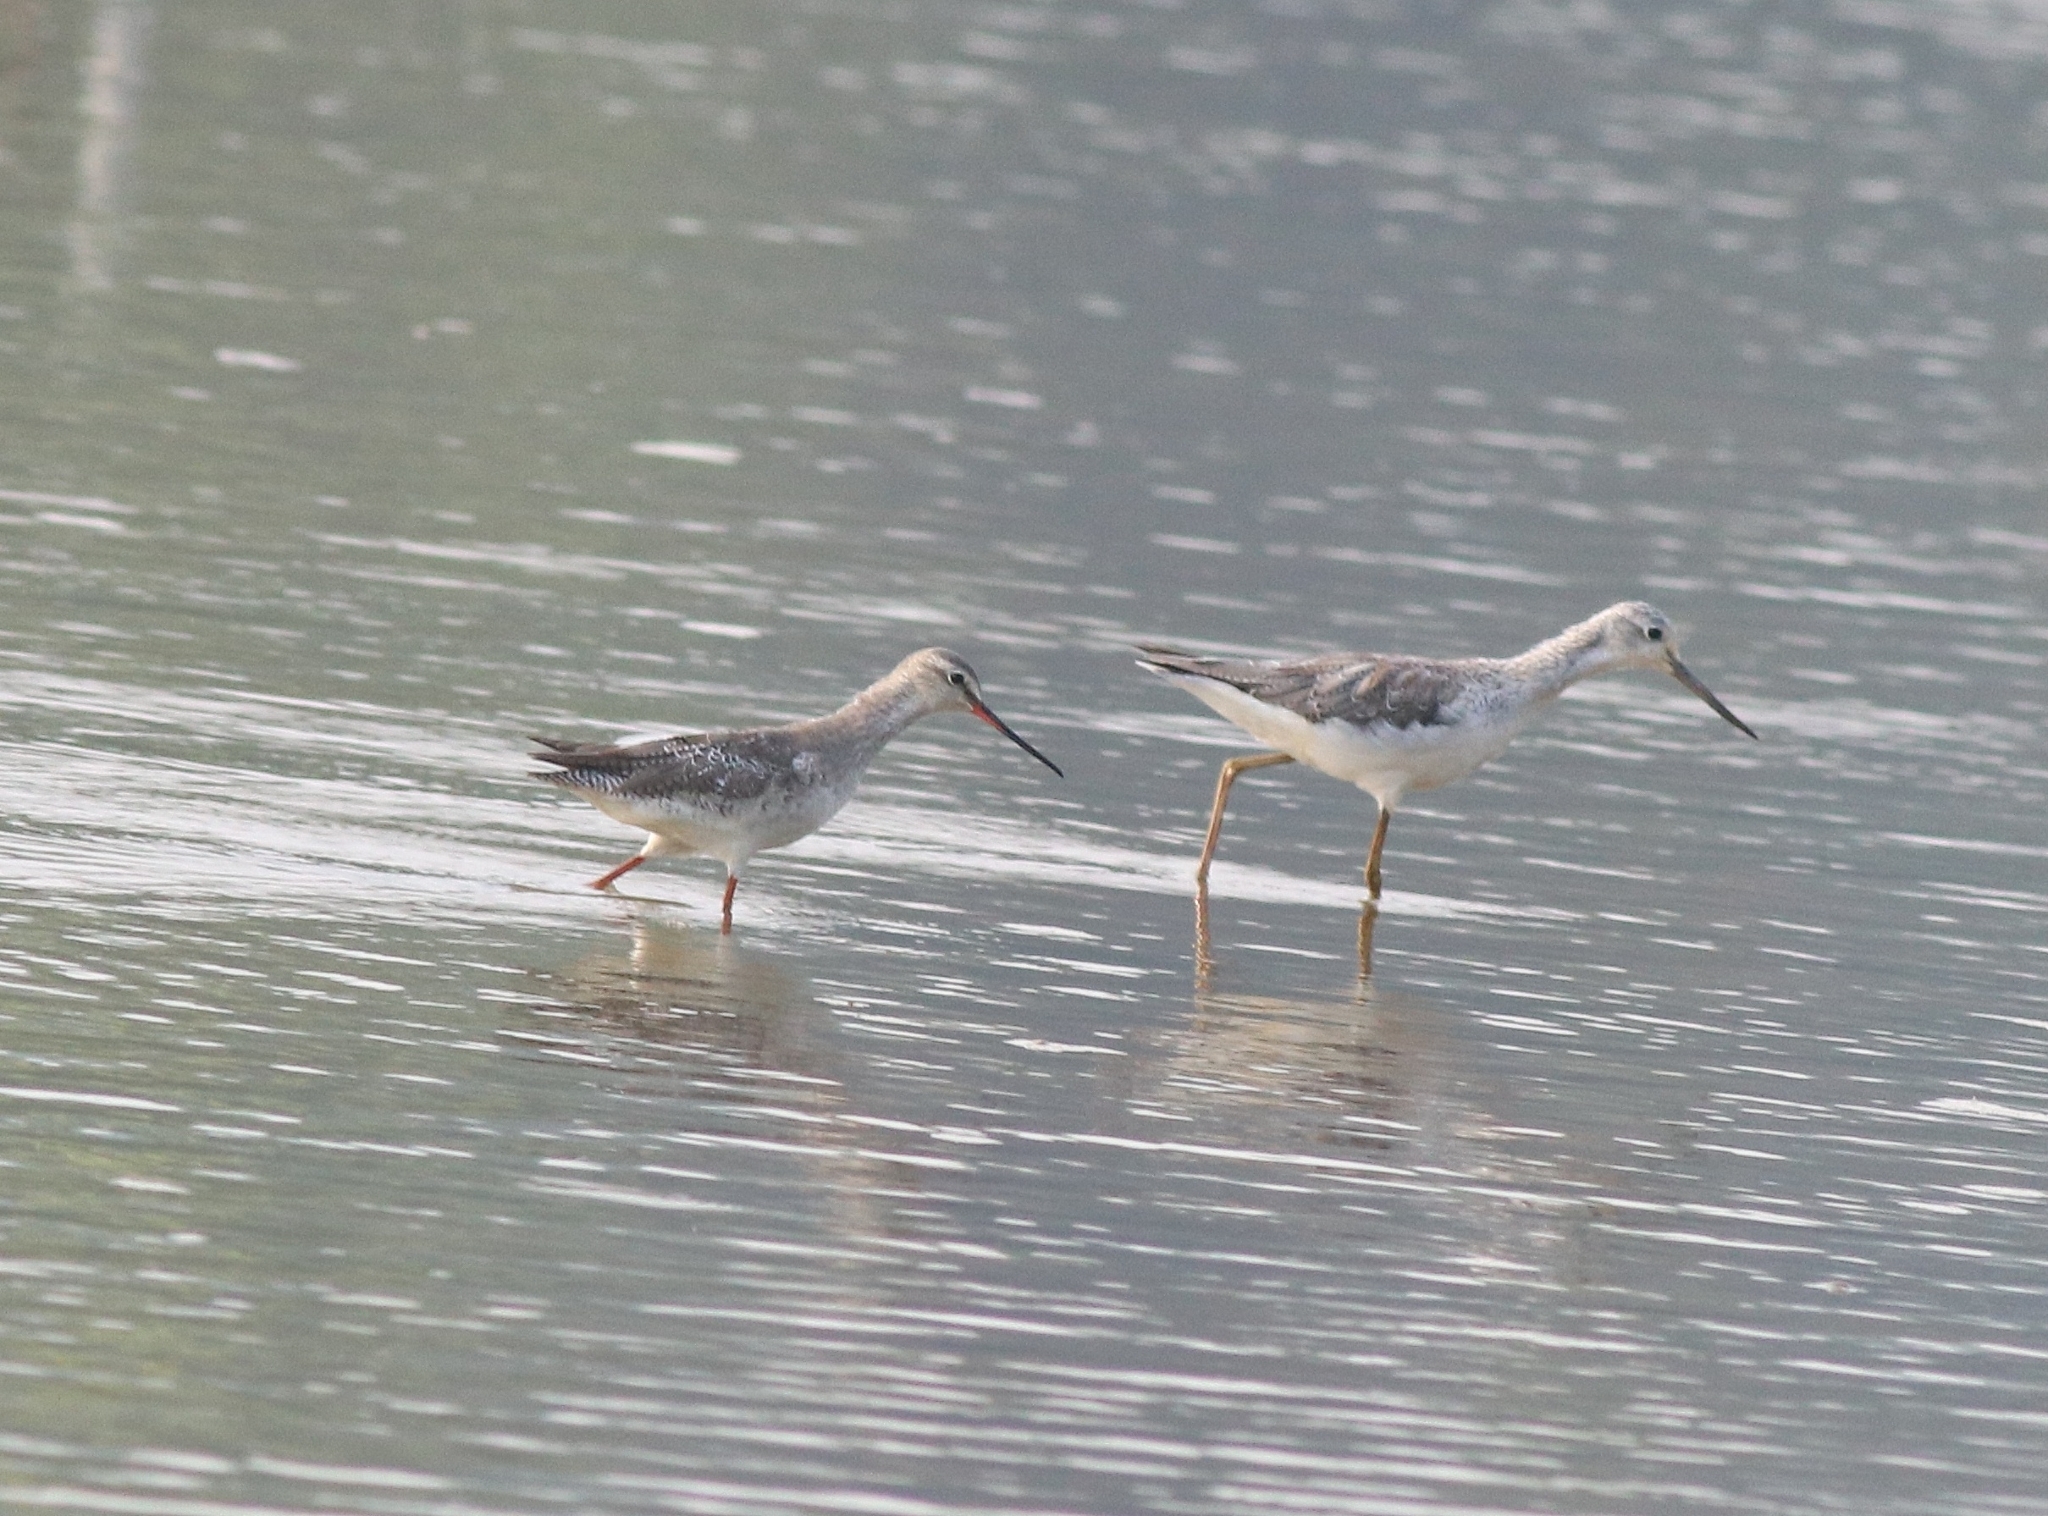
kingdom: Animalia
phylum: Chordata
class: Aves
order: Charadriiformes
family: Scolopacidae
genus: Tringa
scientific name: Tringa erythropus
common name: Spotted redshank
